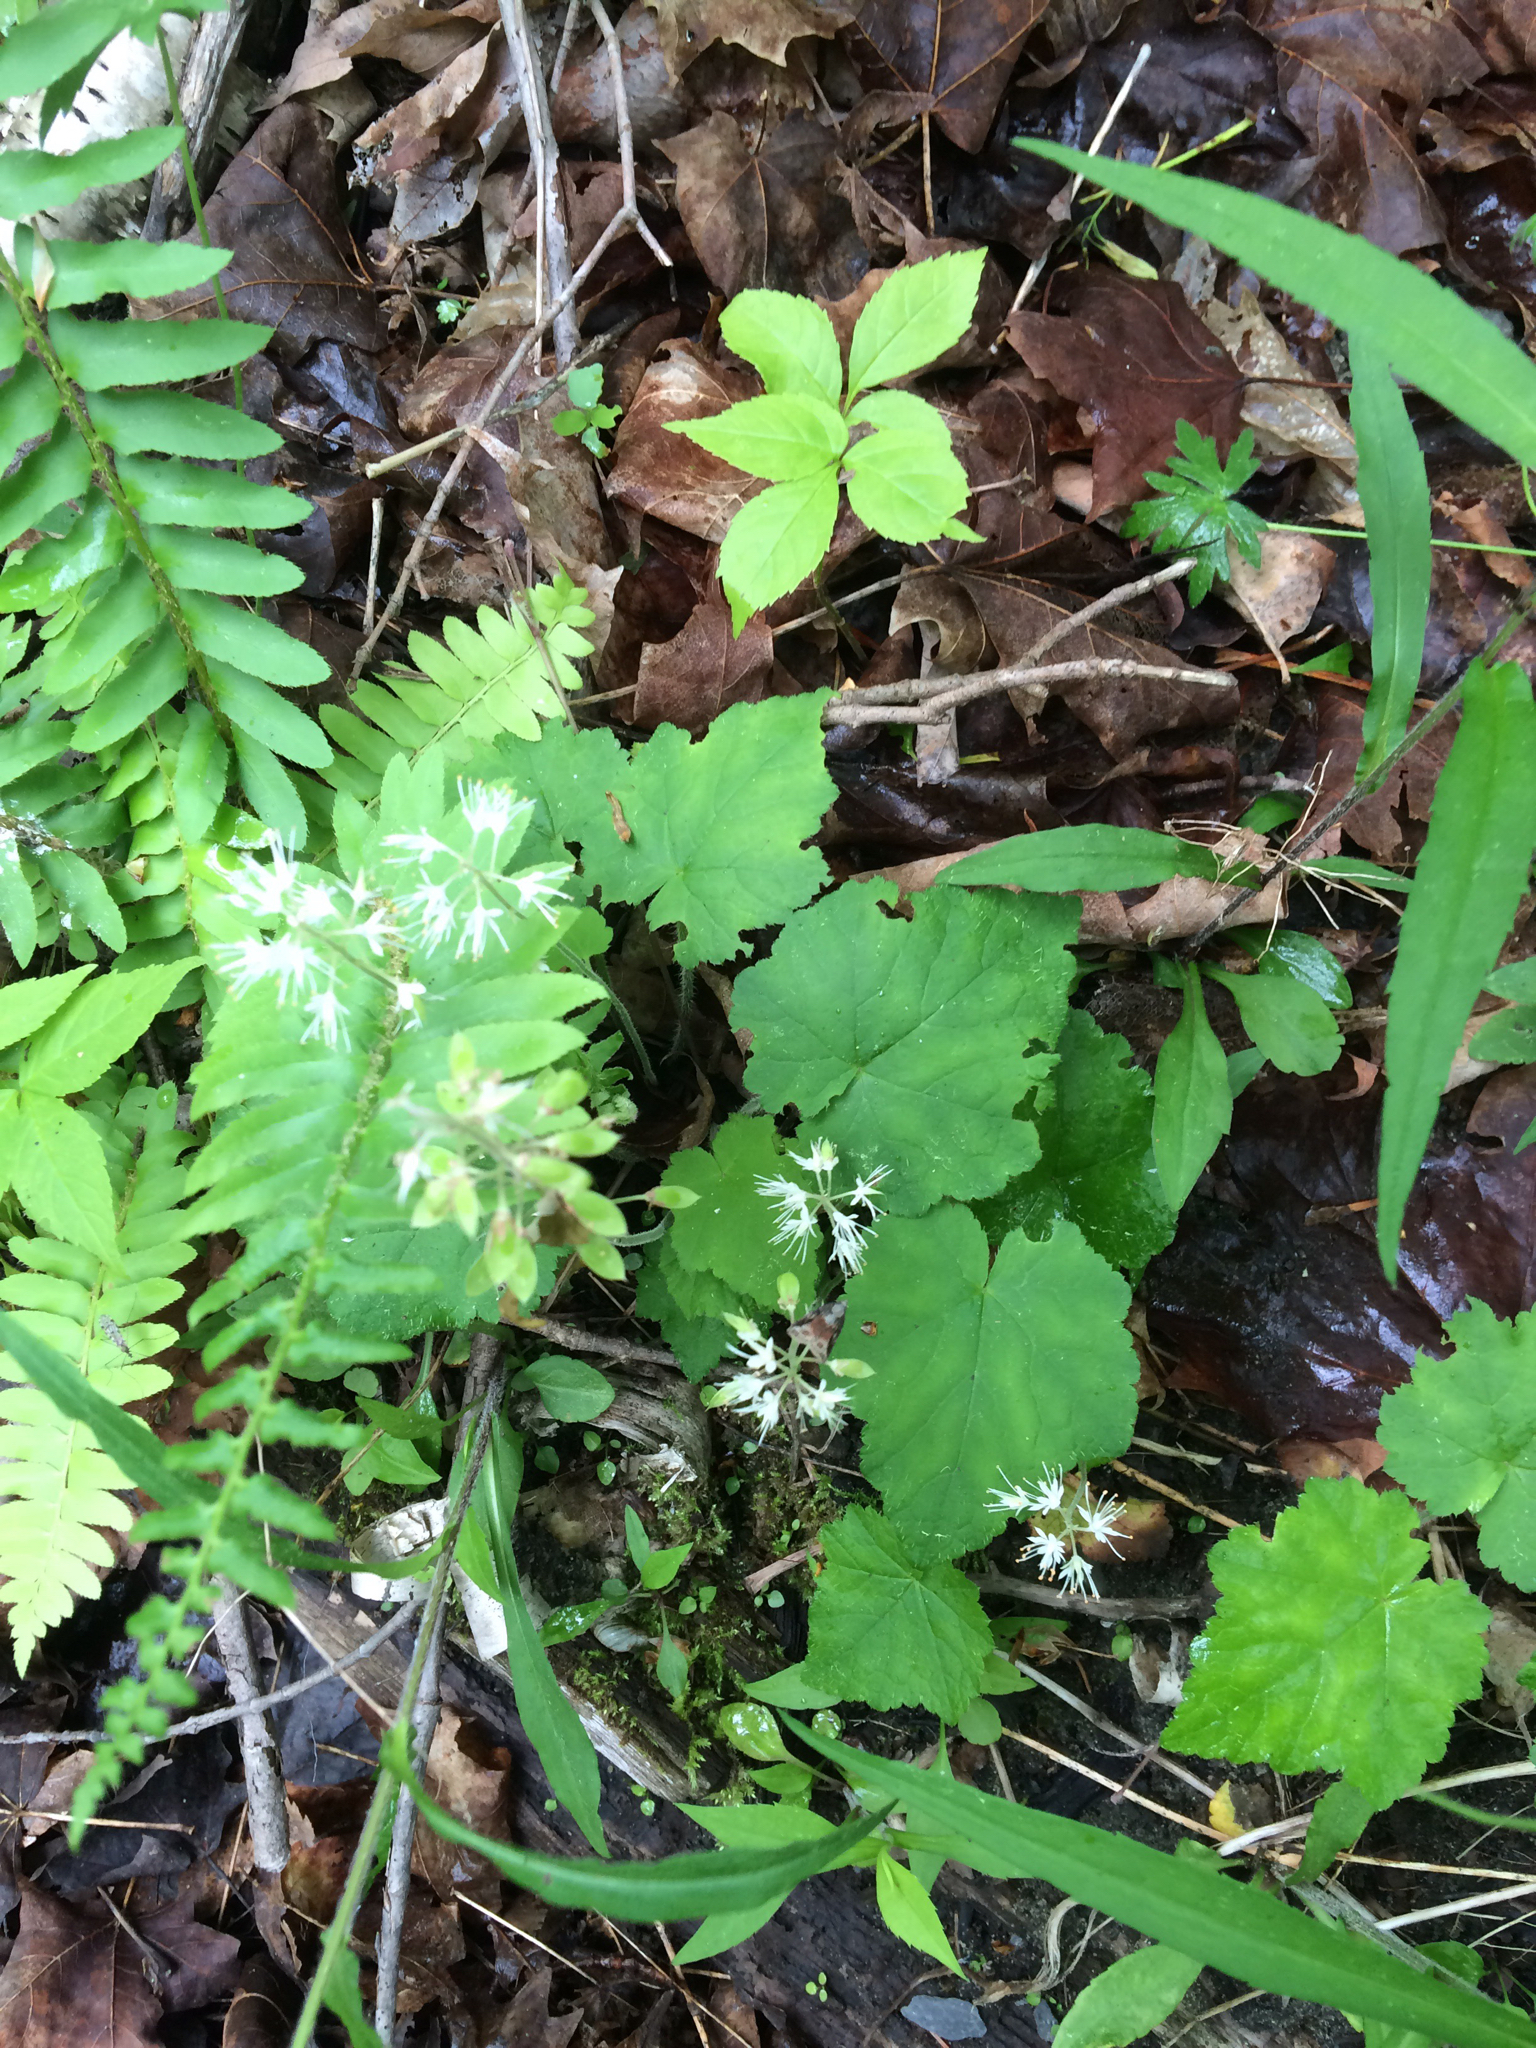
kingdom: Plantae
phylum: Tracheophyta
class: Magnoliopsida
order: Saxifragales
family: Saxifragaceae
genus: Tiarella
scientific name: Tiarella stolonifera
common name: Stoloniferous foamflower
